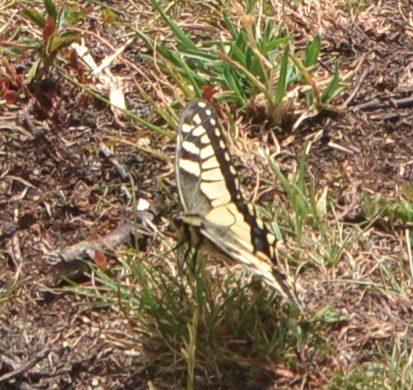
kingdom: Animalia
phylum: Arthropoda
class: Insecta
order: Lepidoptera
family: Papilionidae
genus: Papilio
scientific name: Papilio machaon
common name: Swallowtail
